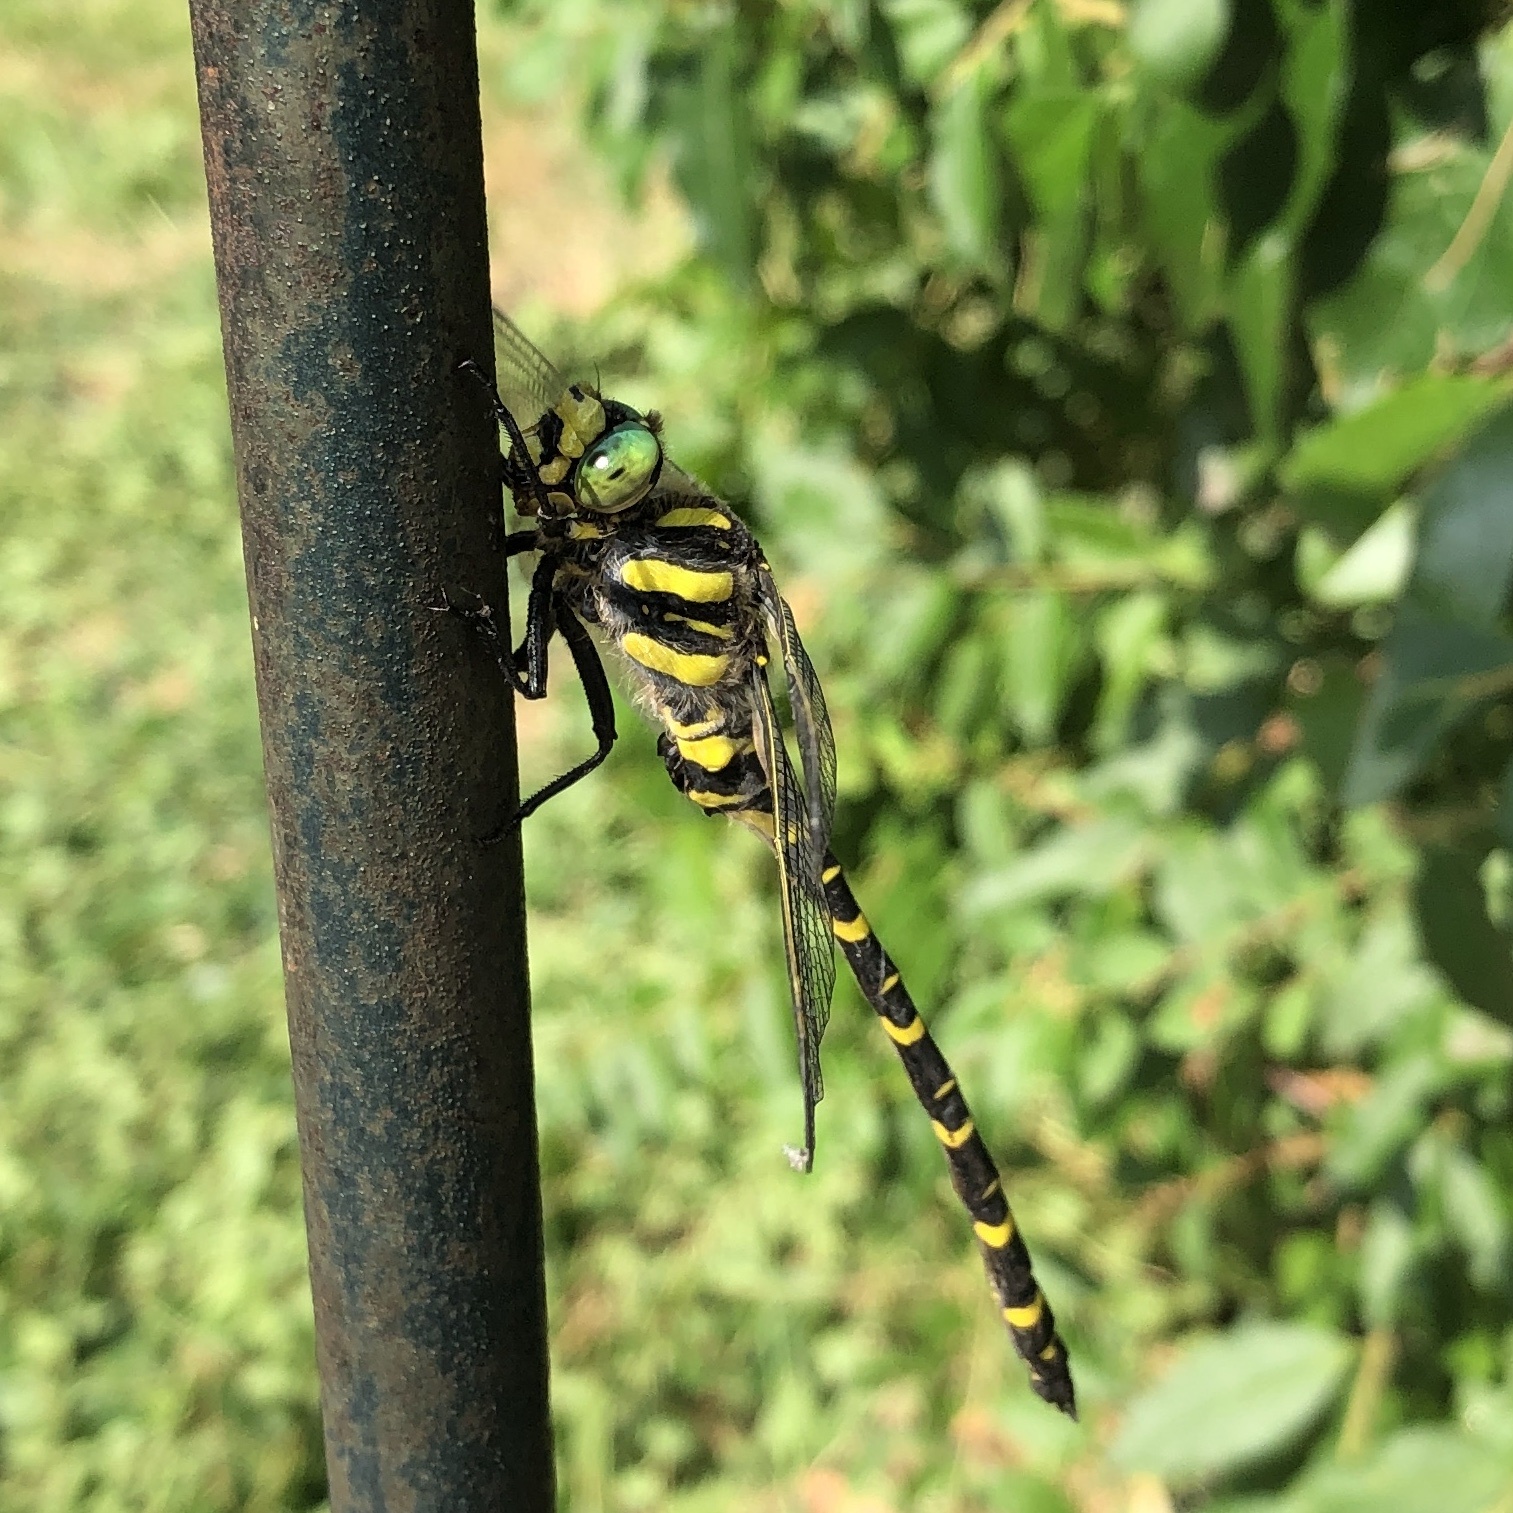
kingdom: Animalia
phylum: Arthropoda
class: Insecta
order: Odonata
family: Cordulegastridae
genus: Cordulegaster
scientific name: Cordulegaster boltonii
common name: Golden-ringed dragonfly
